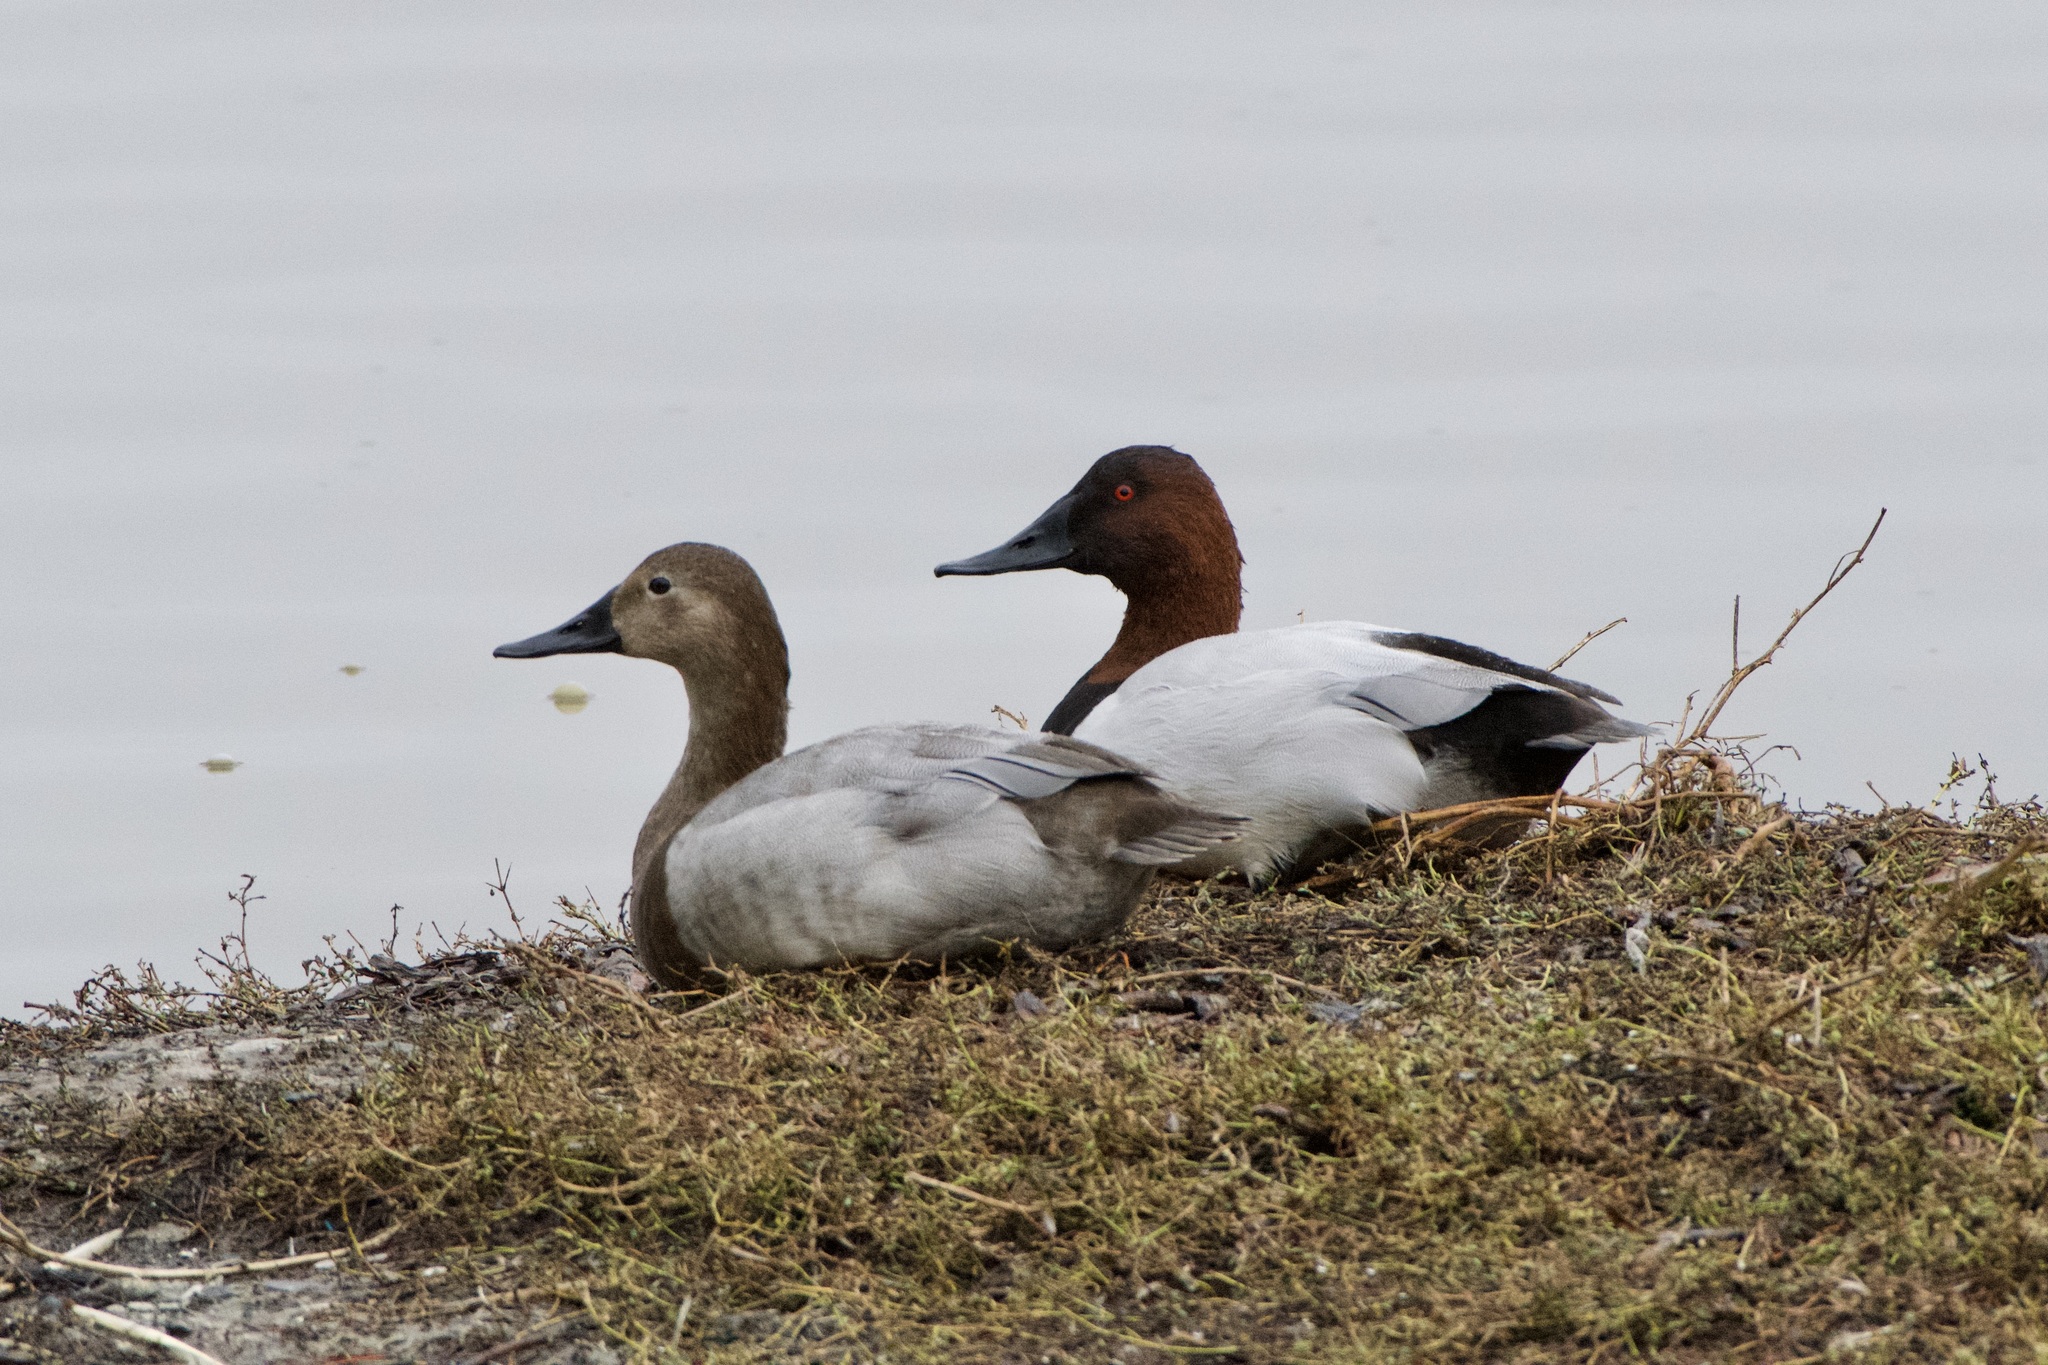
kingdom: Animalia
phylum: Chordata
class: Aves
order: Anseriformes
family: Anatidae
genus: Aythya
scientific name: Aythya valisineria
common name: Canvasback
